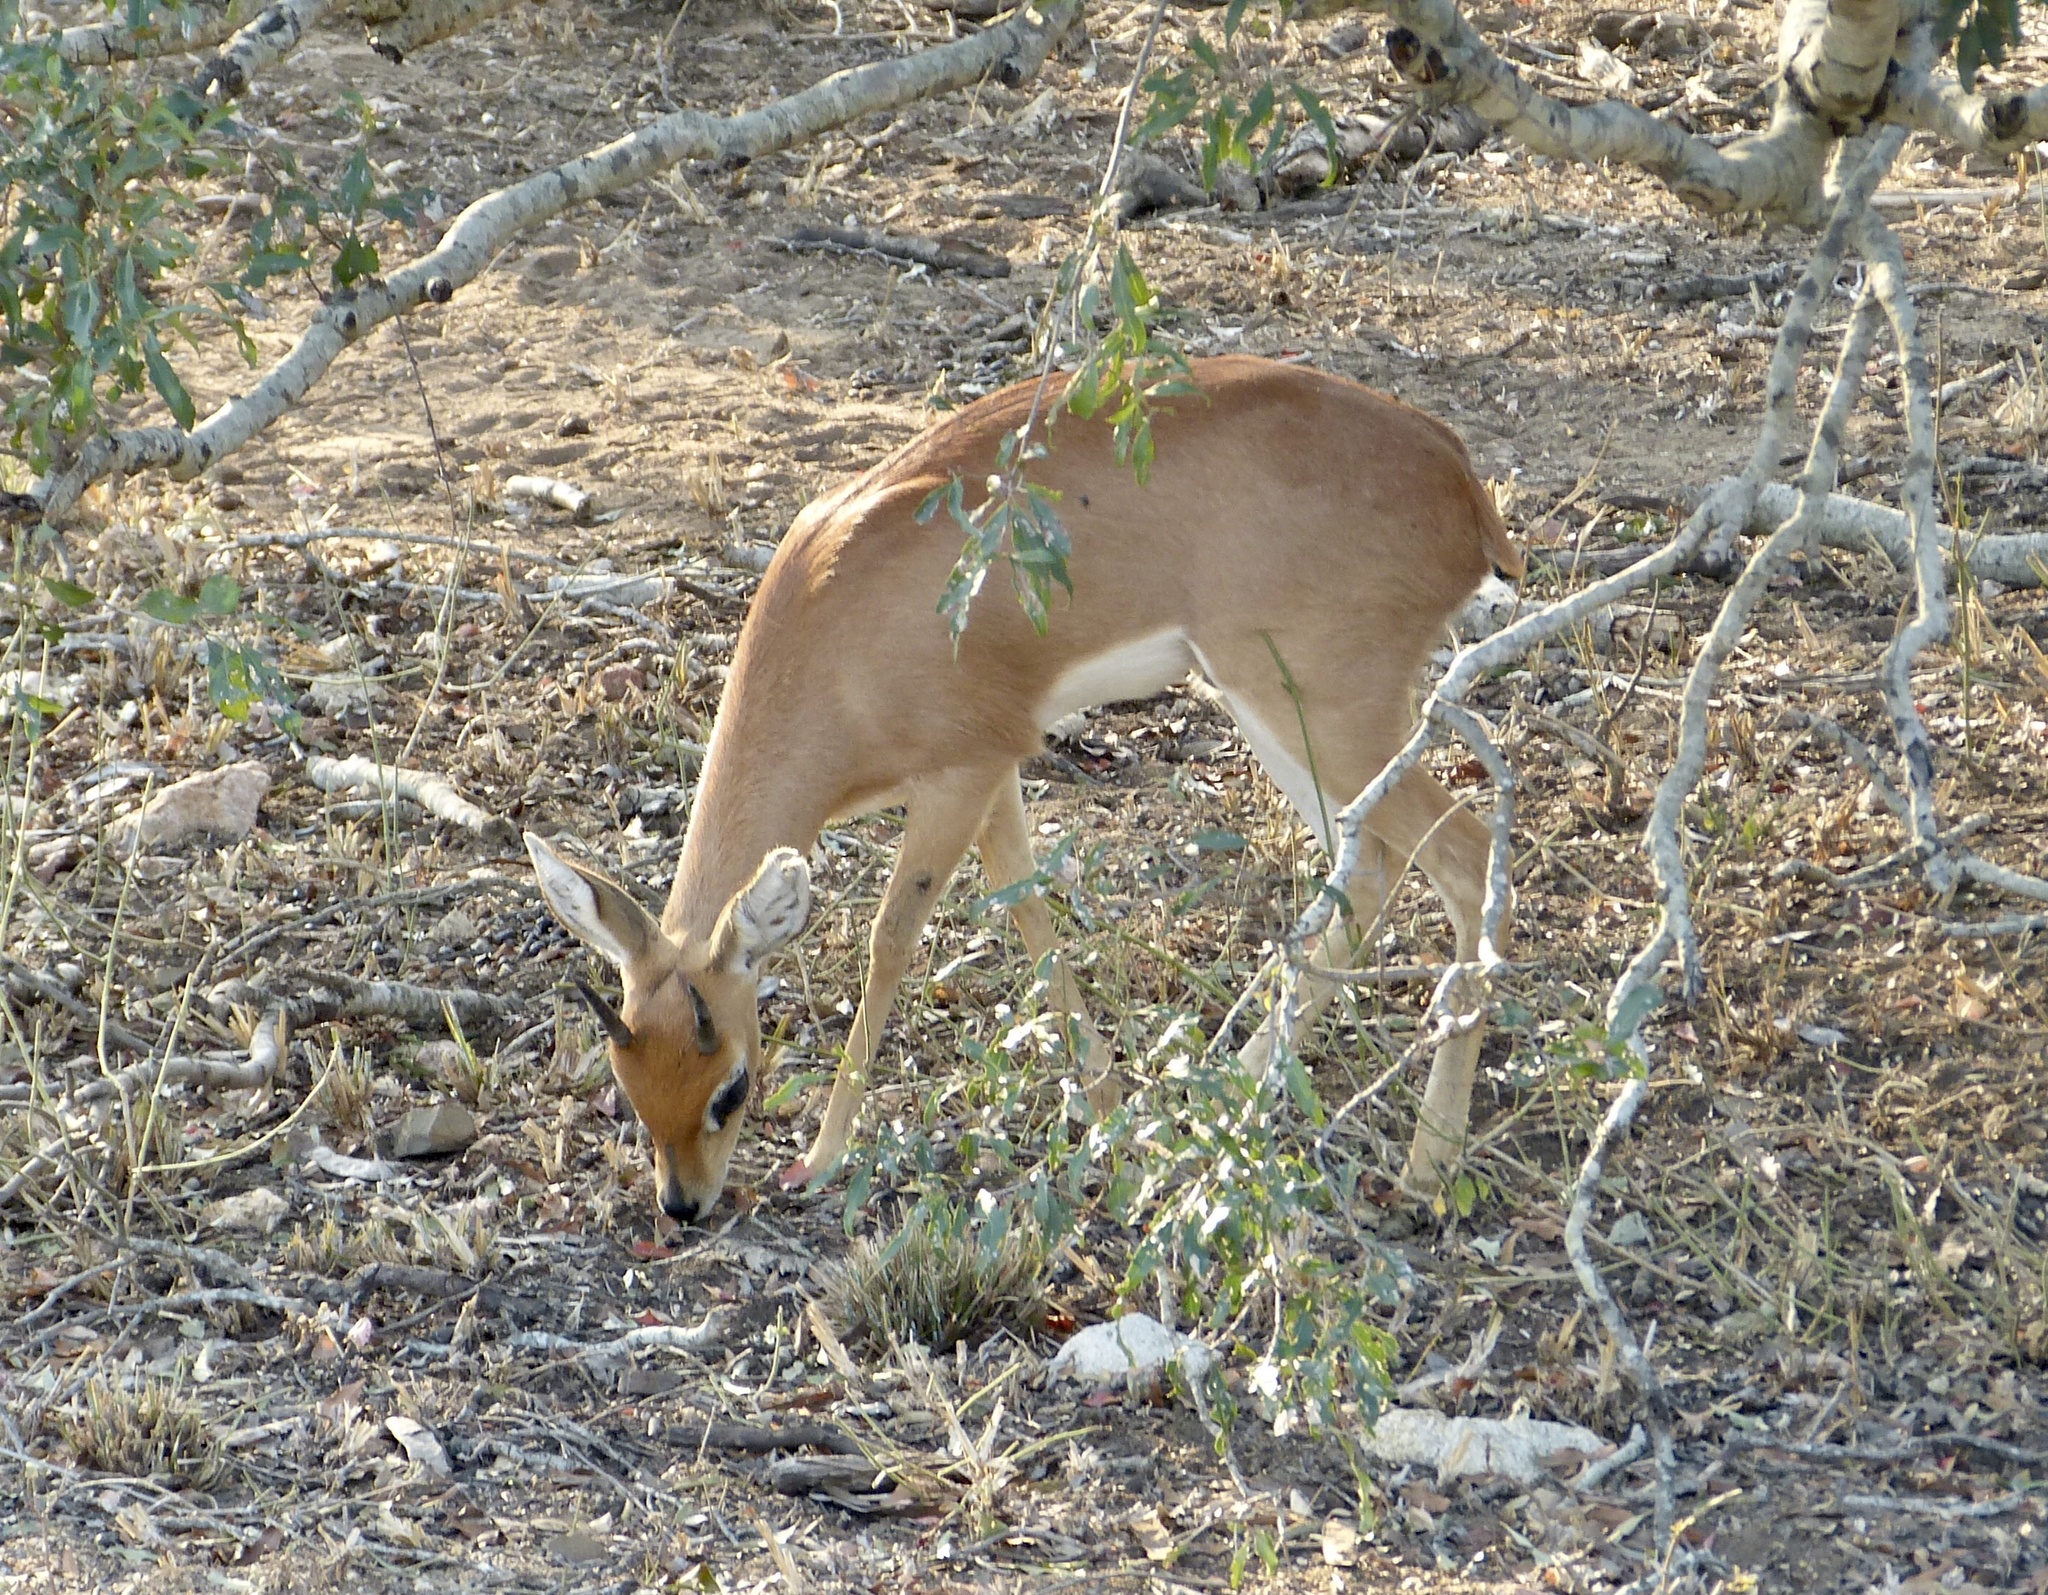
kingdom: Animalia
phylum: Chordata
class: Mammalia
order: Artiodactyla
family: Bovidae
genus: Raphicerus
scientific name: Raphicerus campestris
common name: Steenbok
